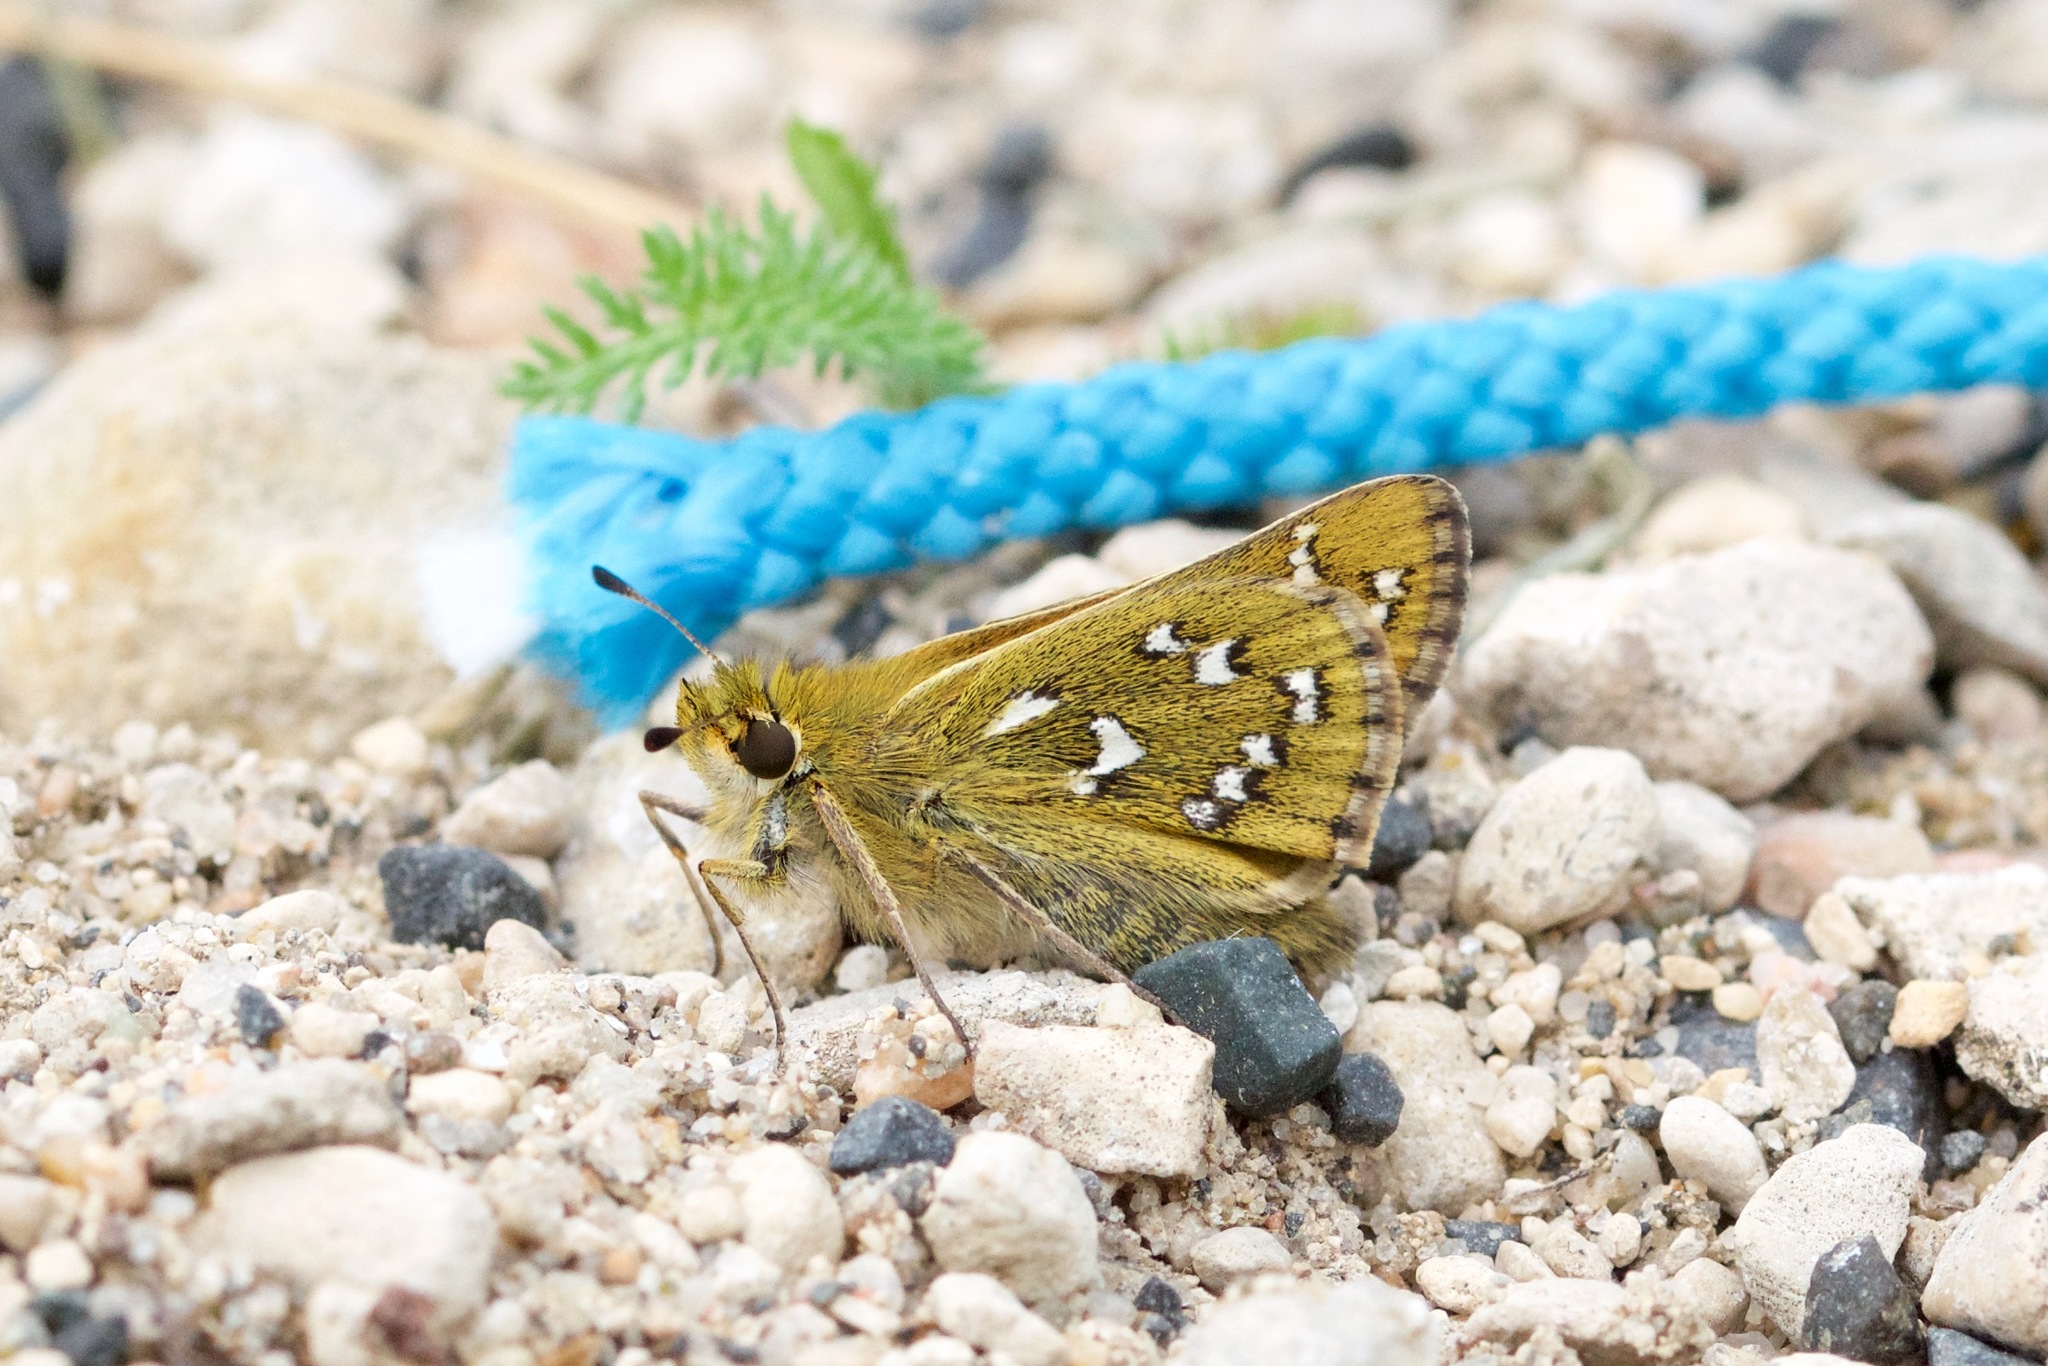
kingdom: Animalia
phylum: Arthropoda
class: Insecta
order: Lepidoptera
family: Hesperiidae
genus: Hesperia
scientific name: Hesperia comma
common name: Common branded skipper
